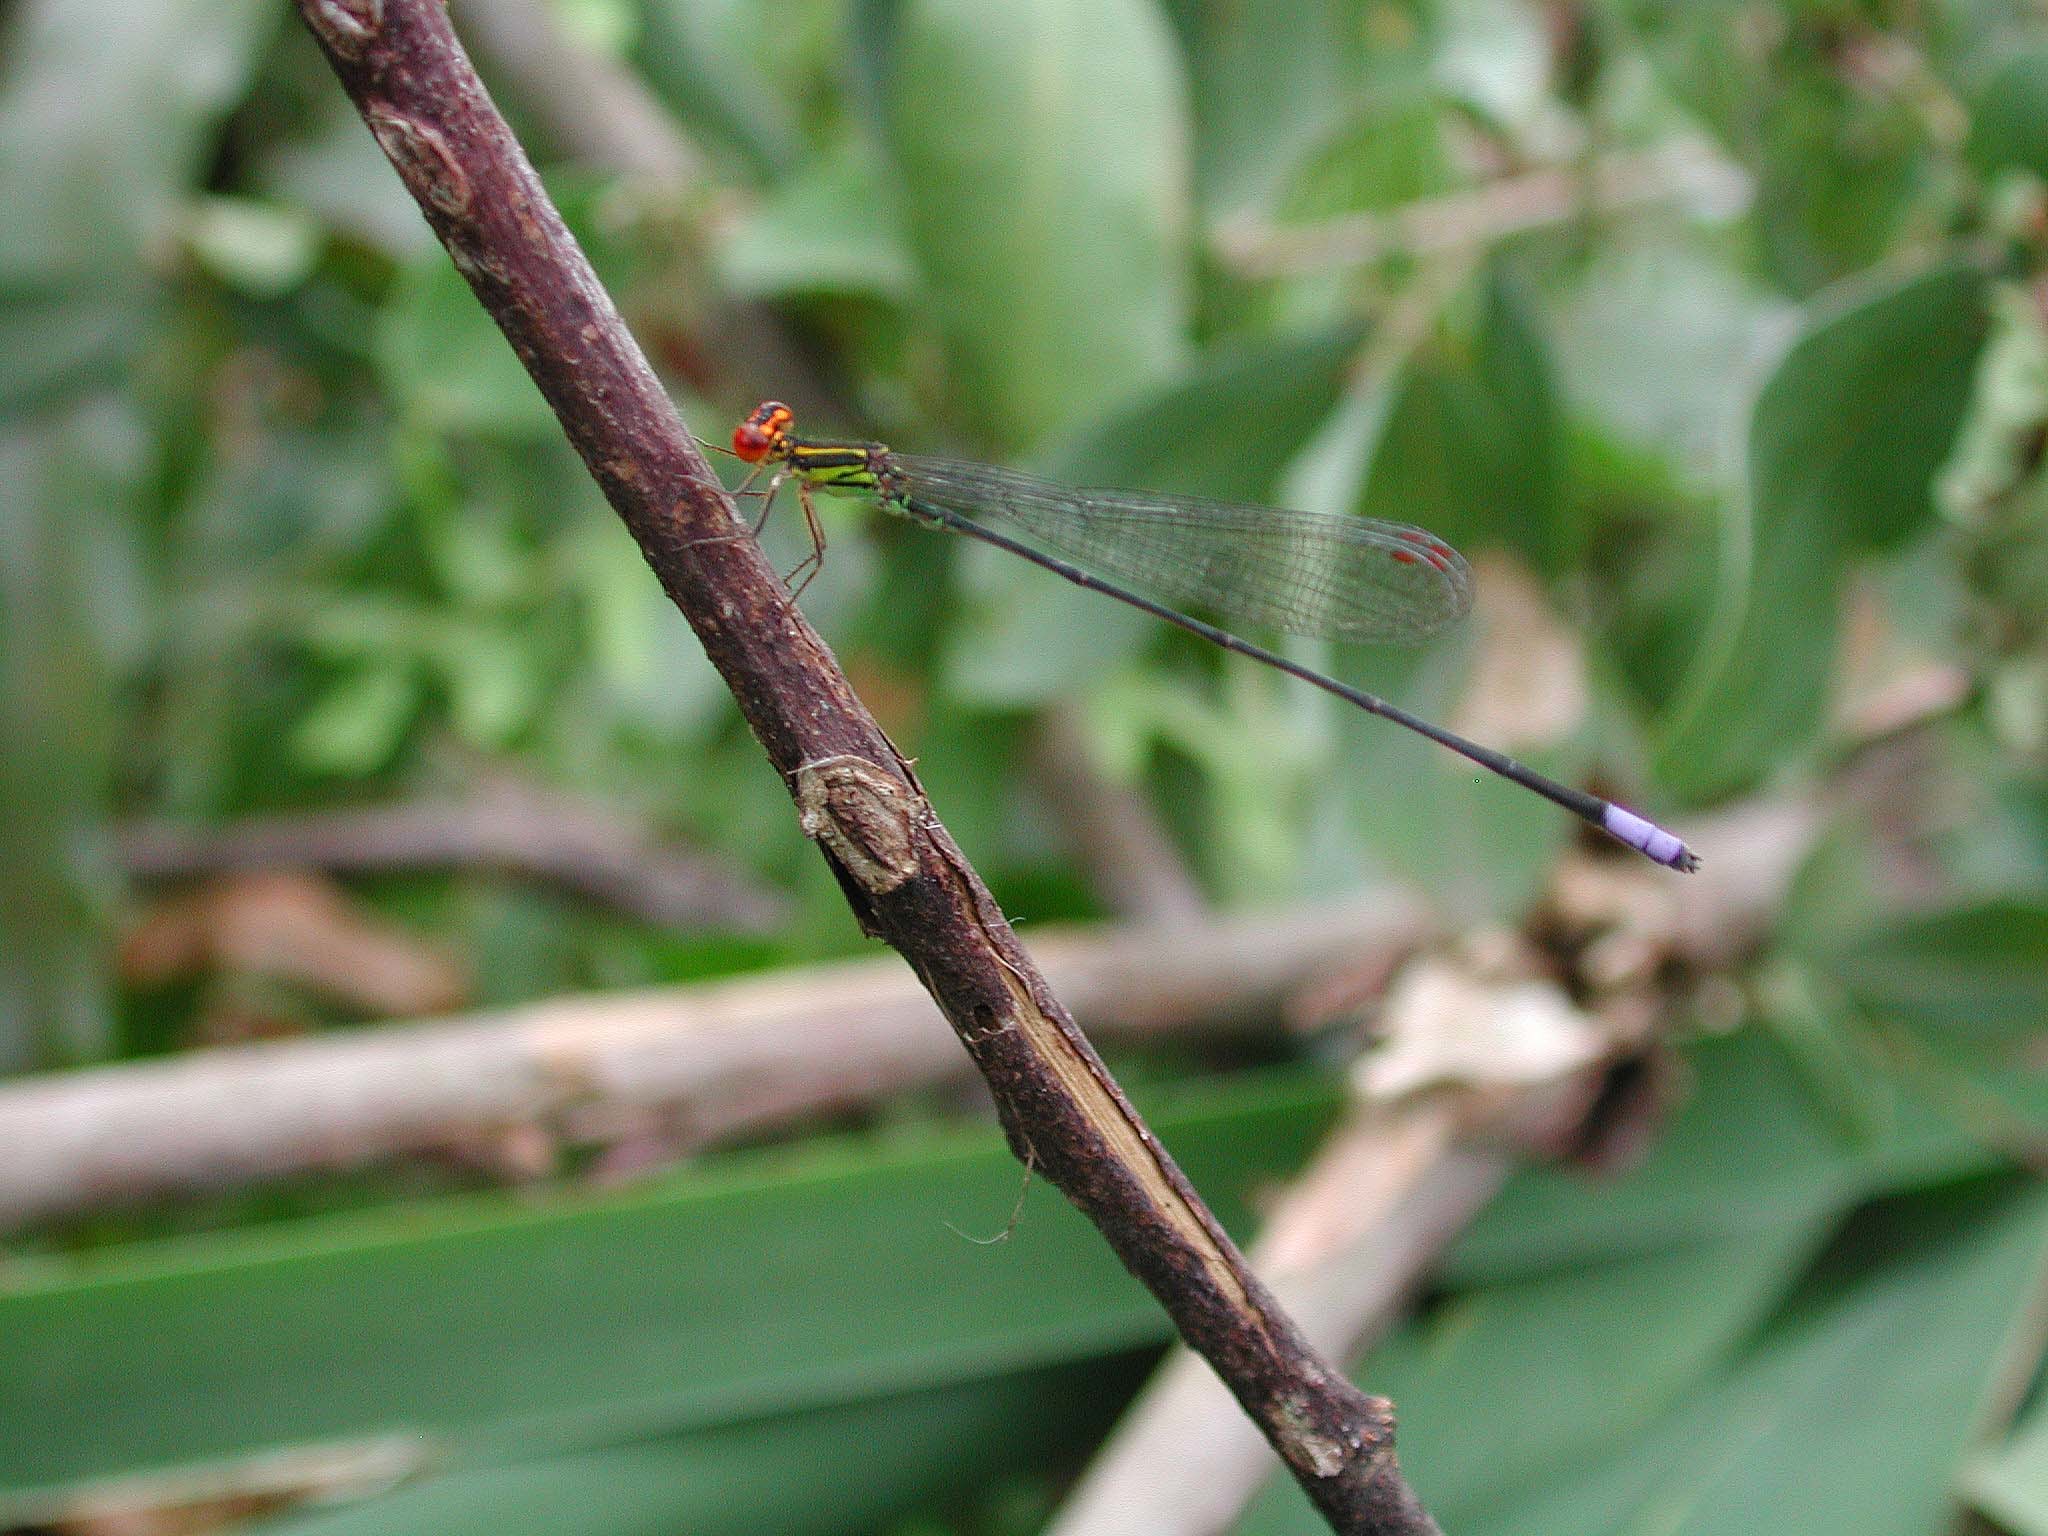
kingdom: Animalia
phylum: Arthropoda
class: Insecta
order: Odonata
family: Coenagrionidae
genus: Pseudagrion
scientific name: Pseudagrion hageni
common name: Painted sprite
